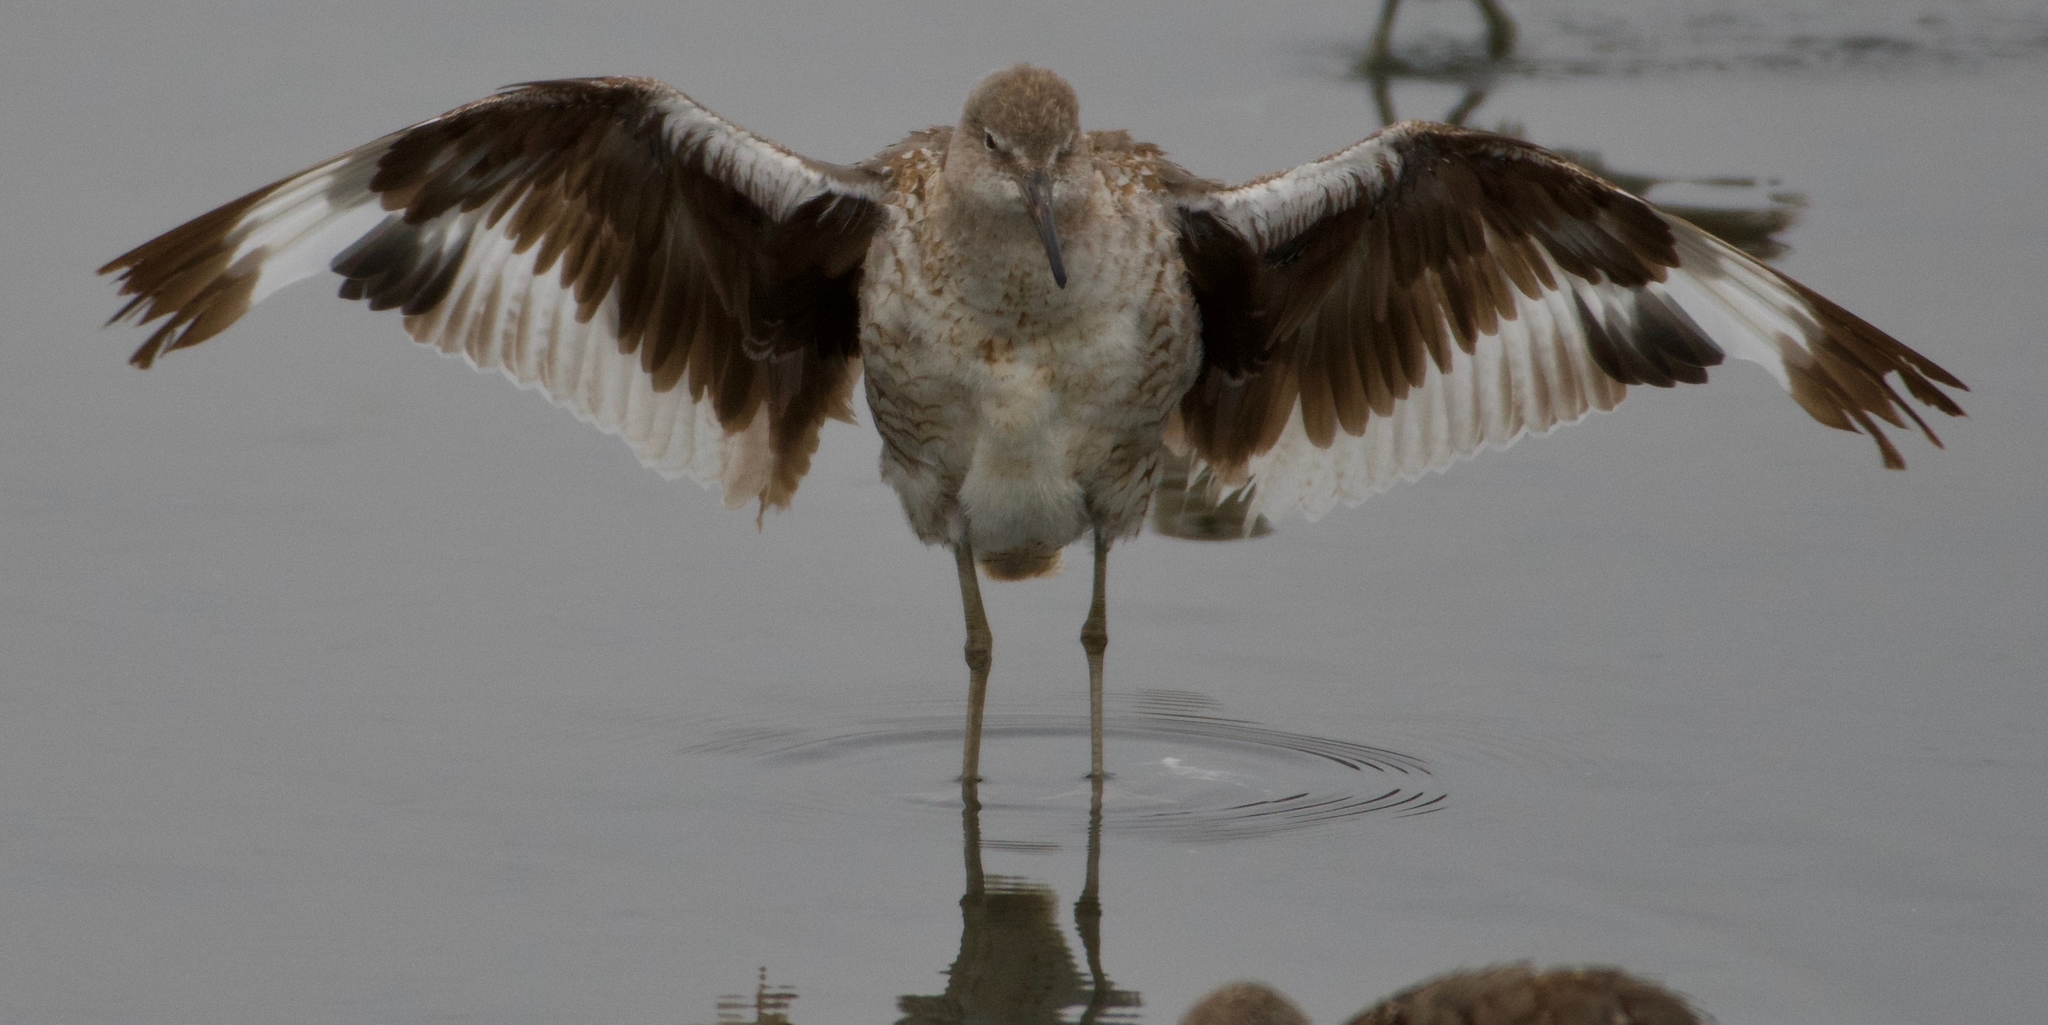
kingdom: Animalia
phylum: Chordata
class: Aves
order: Charadriiformes
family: Scolopacidae
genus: Tringa
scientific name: Tringa semipalmata
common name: Willet
